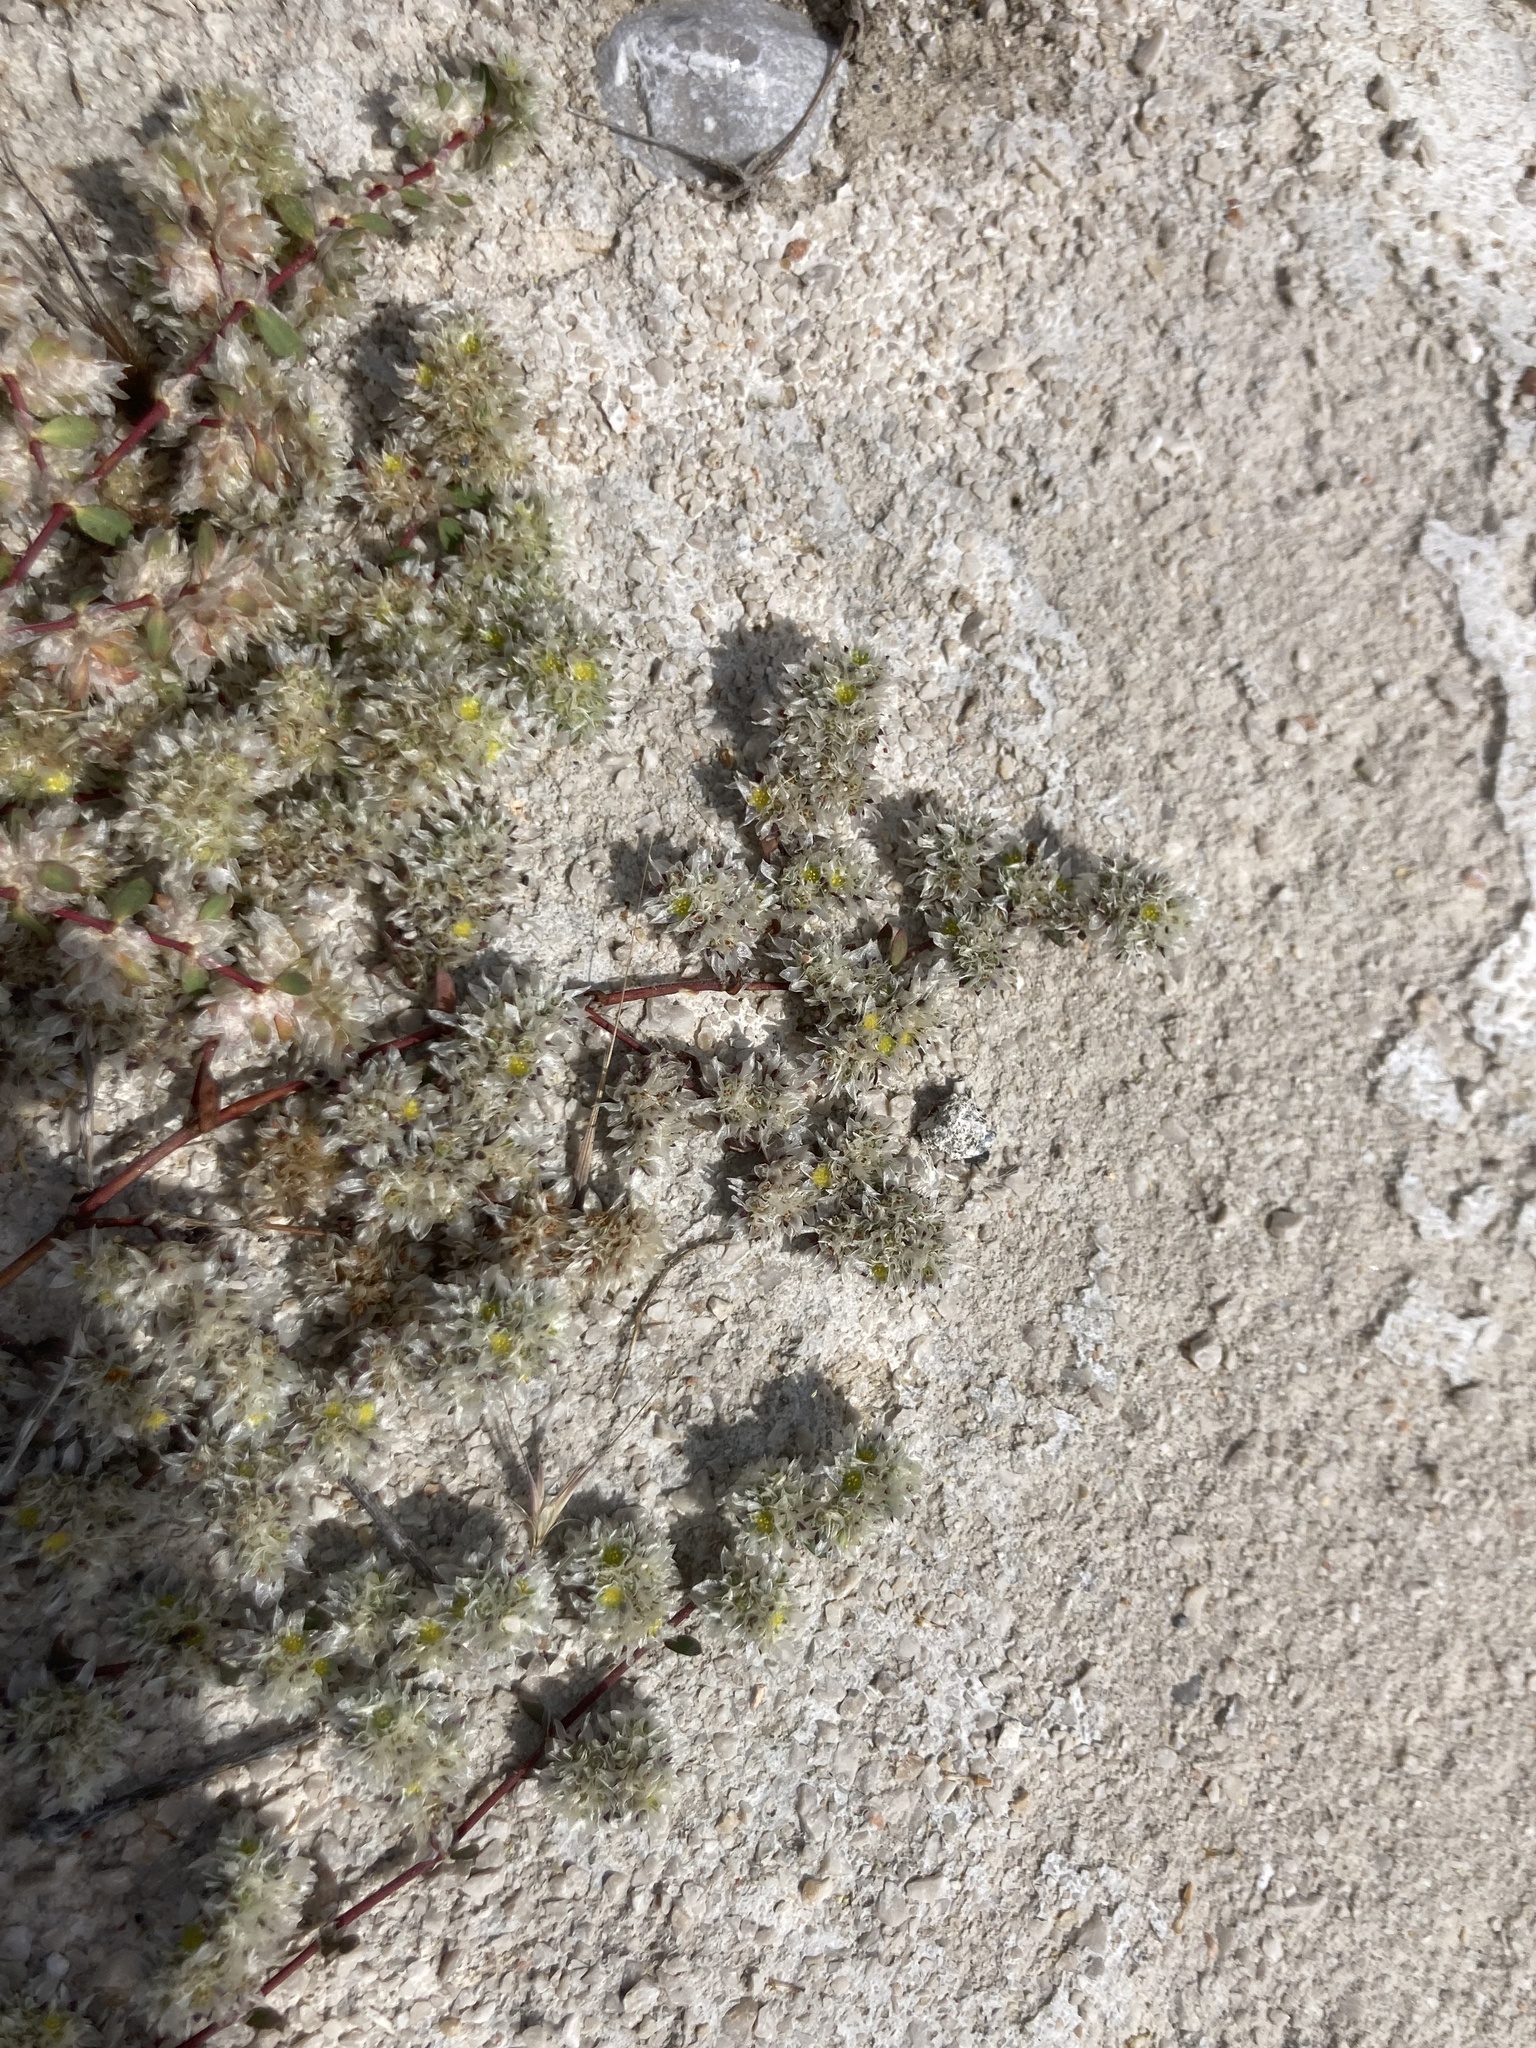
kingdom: Plantae
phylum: Tracheophyta
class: Magnoliopsida
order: Caryophyllales
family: Caryophyllaceae
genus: Paronychia
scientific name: Paronychia argentea
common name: Silver nailroot
